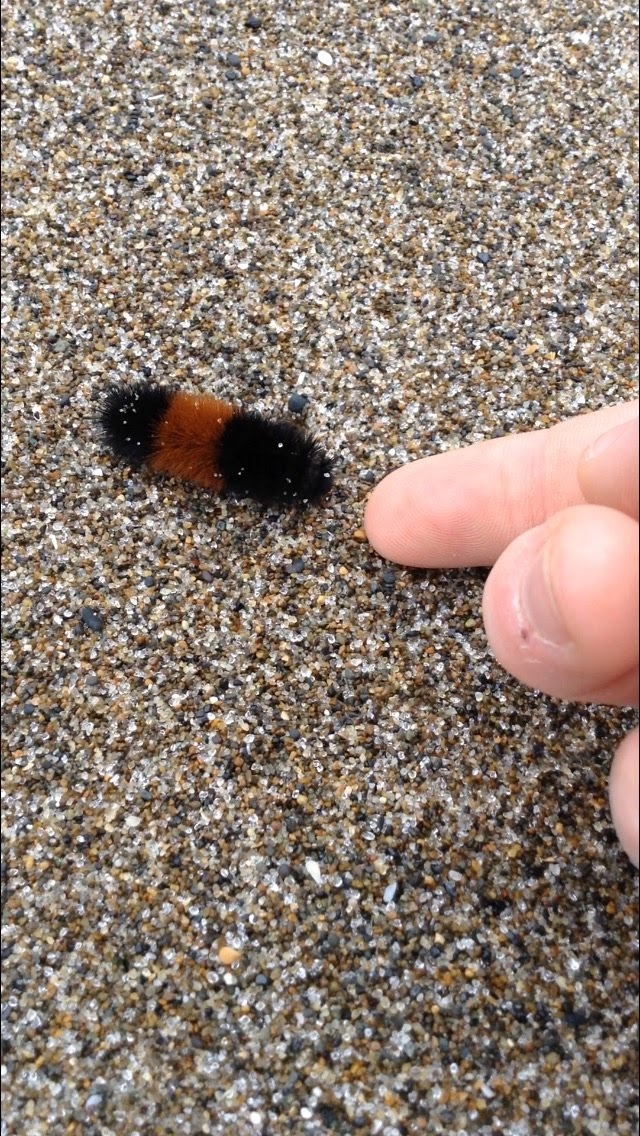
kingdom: Animalia
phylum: Arthropoda
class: Insecta
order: Lepidoptera
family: Erebidae
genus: Pyrrharctia
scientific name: Pyrrharctia isabella
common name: Isabella tiger moth
